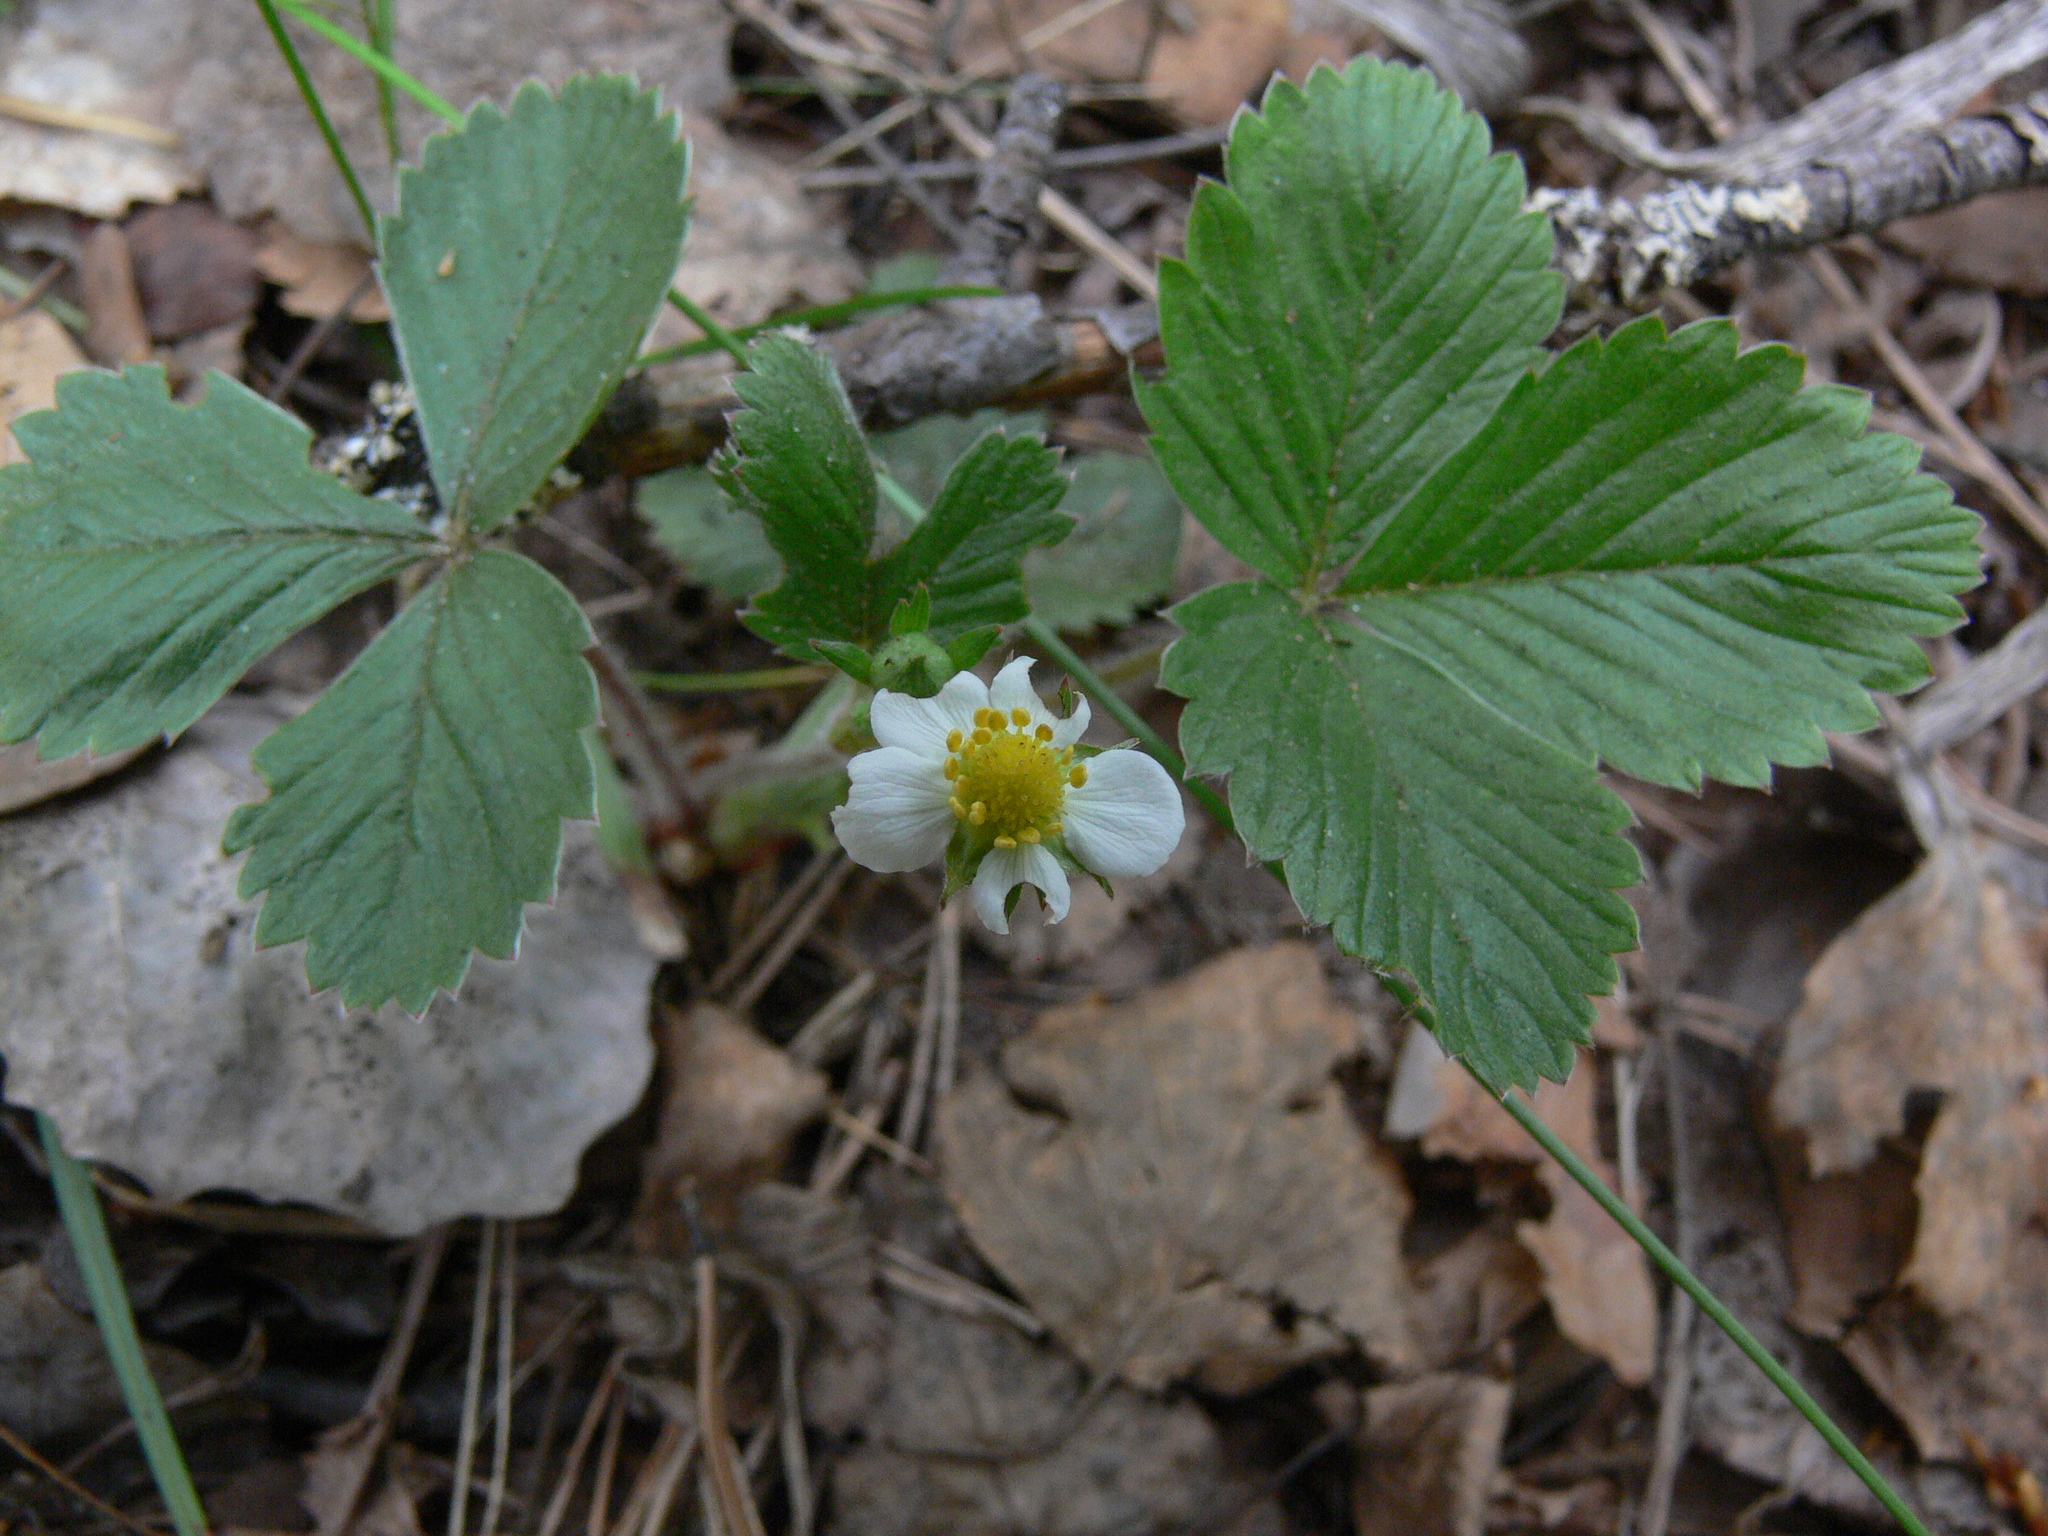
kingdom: Plantae
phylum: Tracheophyta
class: Magnoliopsida
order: Rosales
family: Rosaceae
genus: Fragaria
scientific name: Fragaria vesca
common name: Wild strawberry
